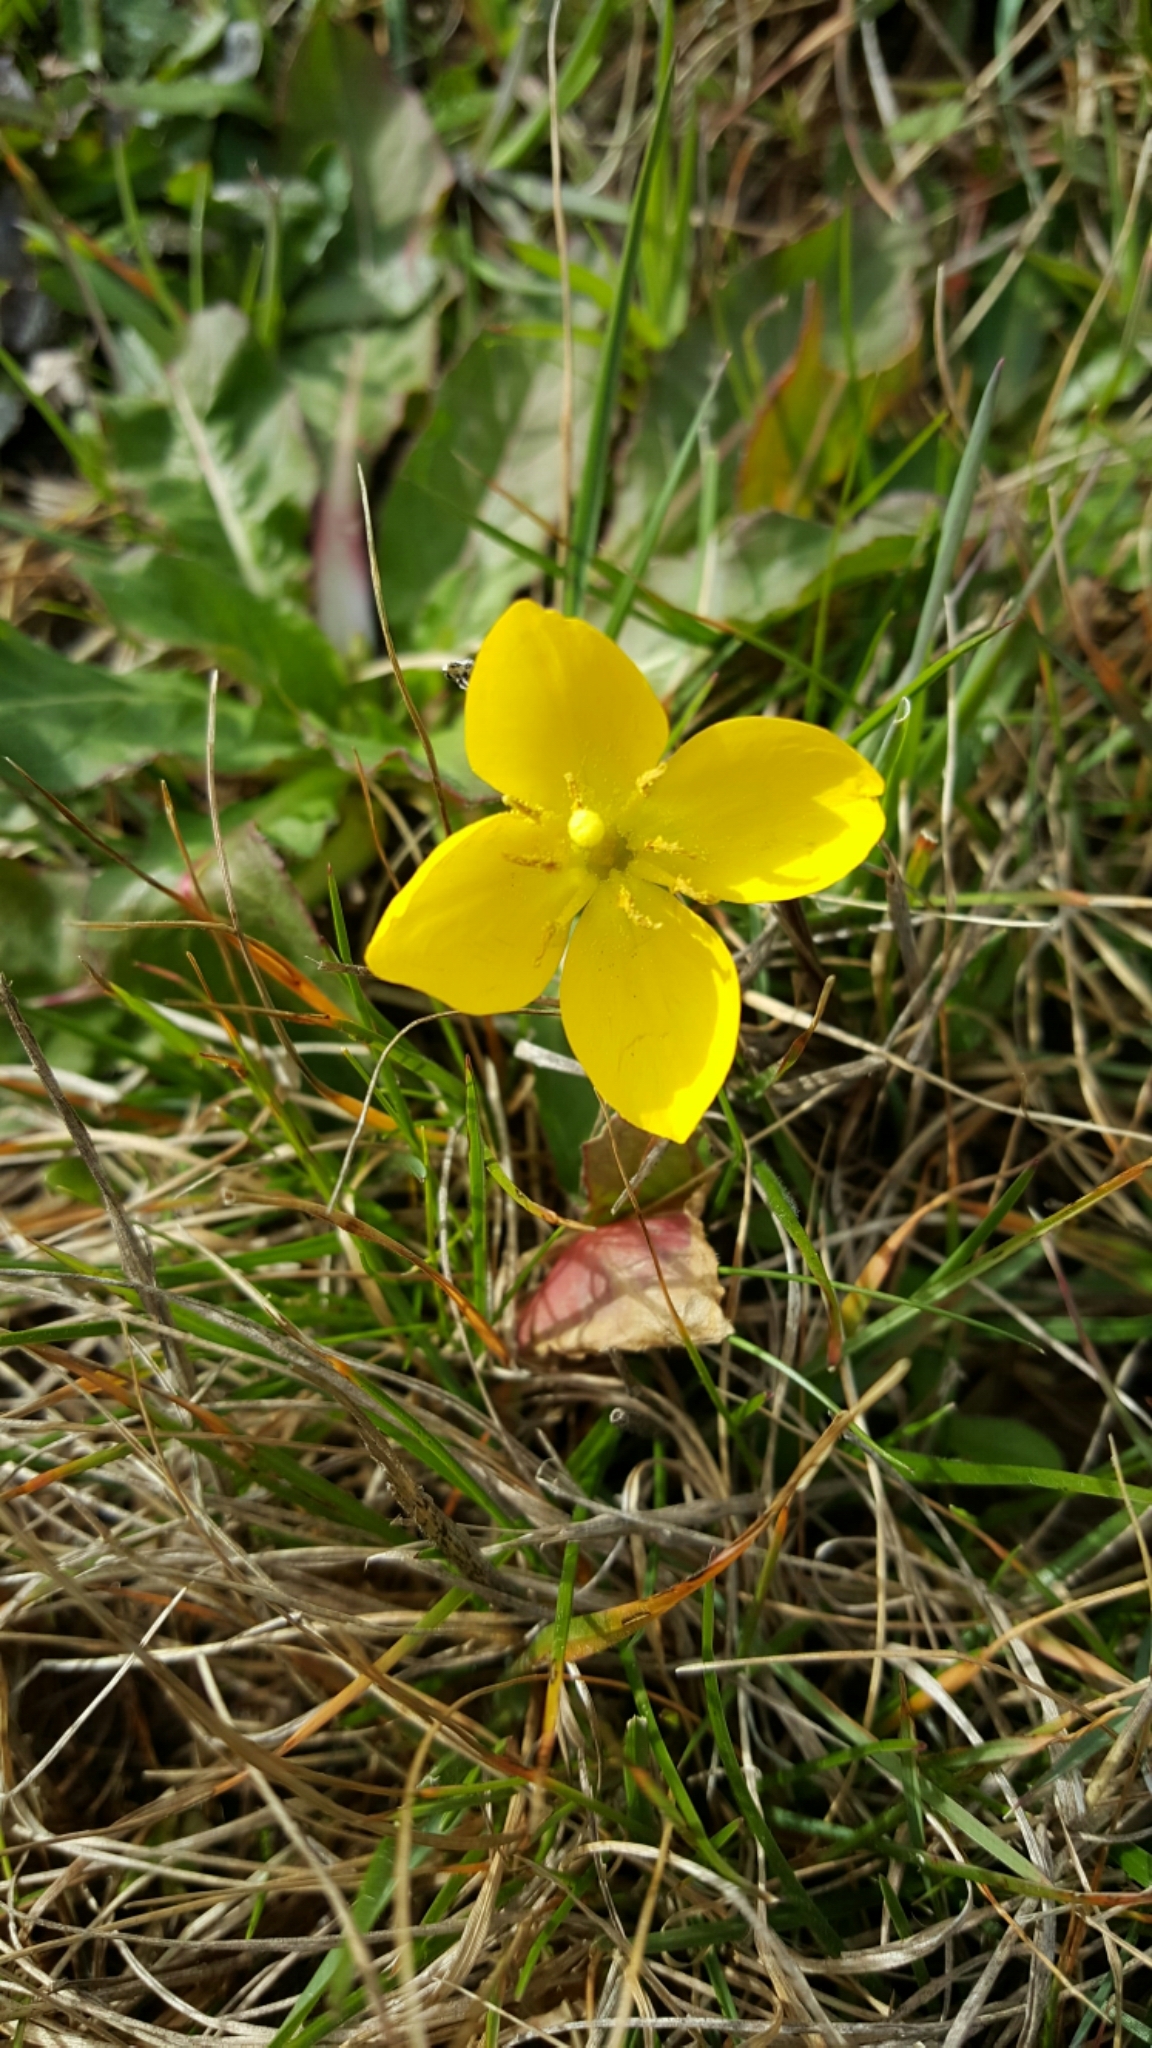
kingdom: Plantae
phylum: Tracheophyta
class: Magnoliopsida
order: Myrtales
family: Onagraceae
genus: Taraxia
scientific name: Taraxia ovata
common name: Goldeneggs
